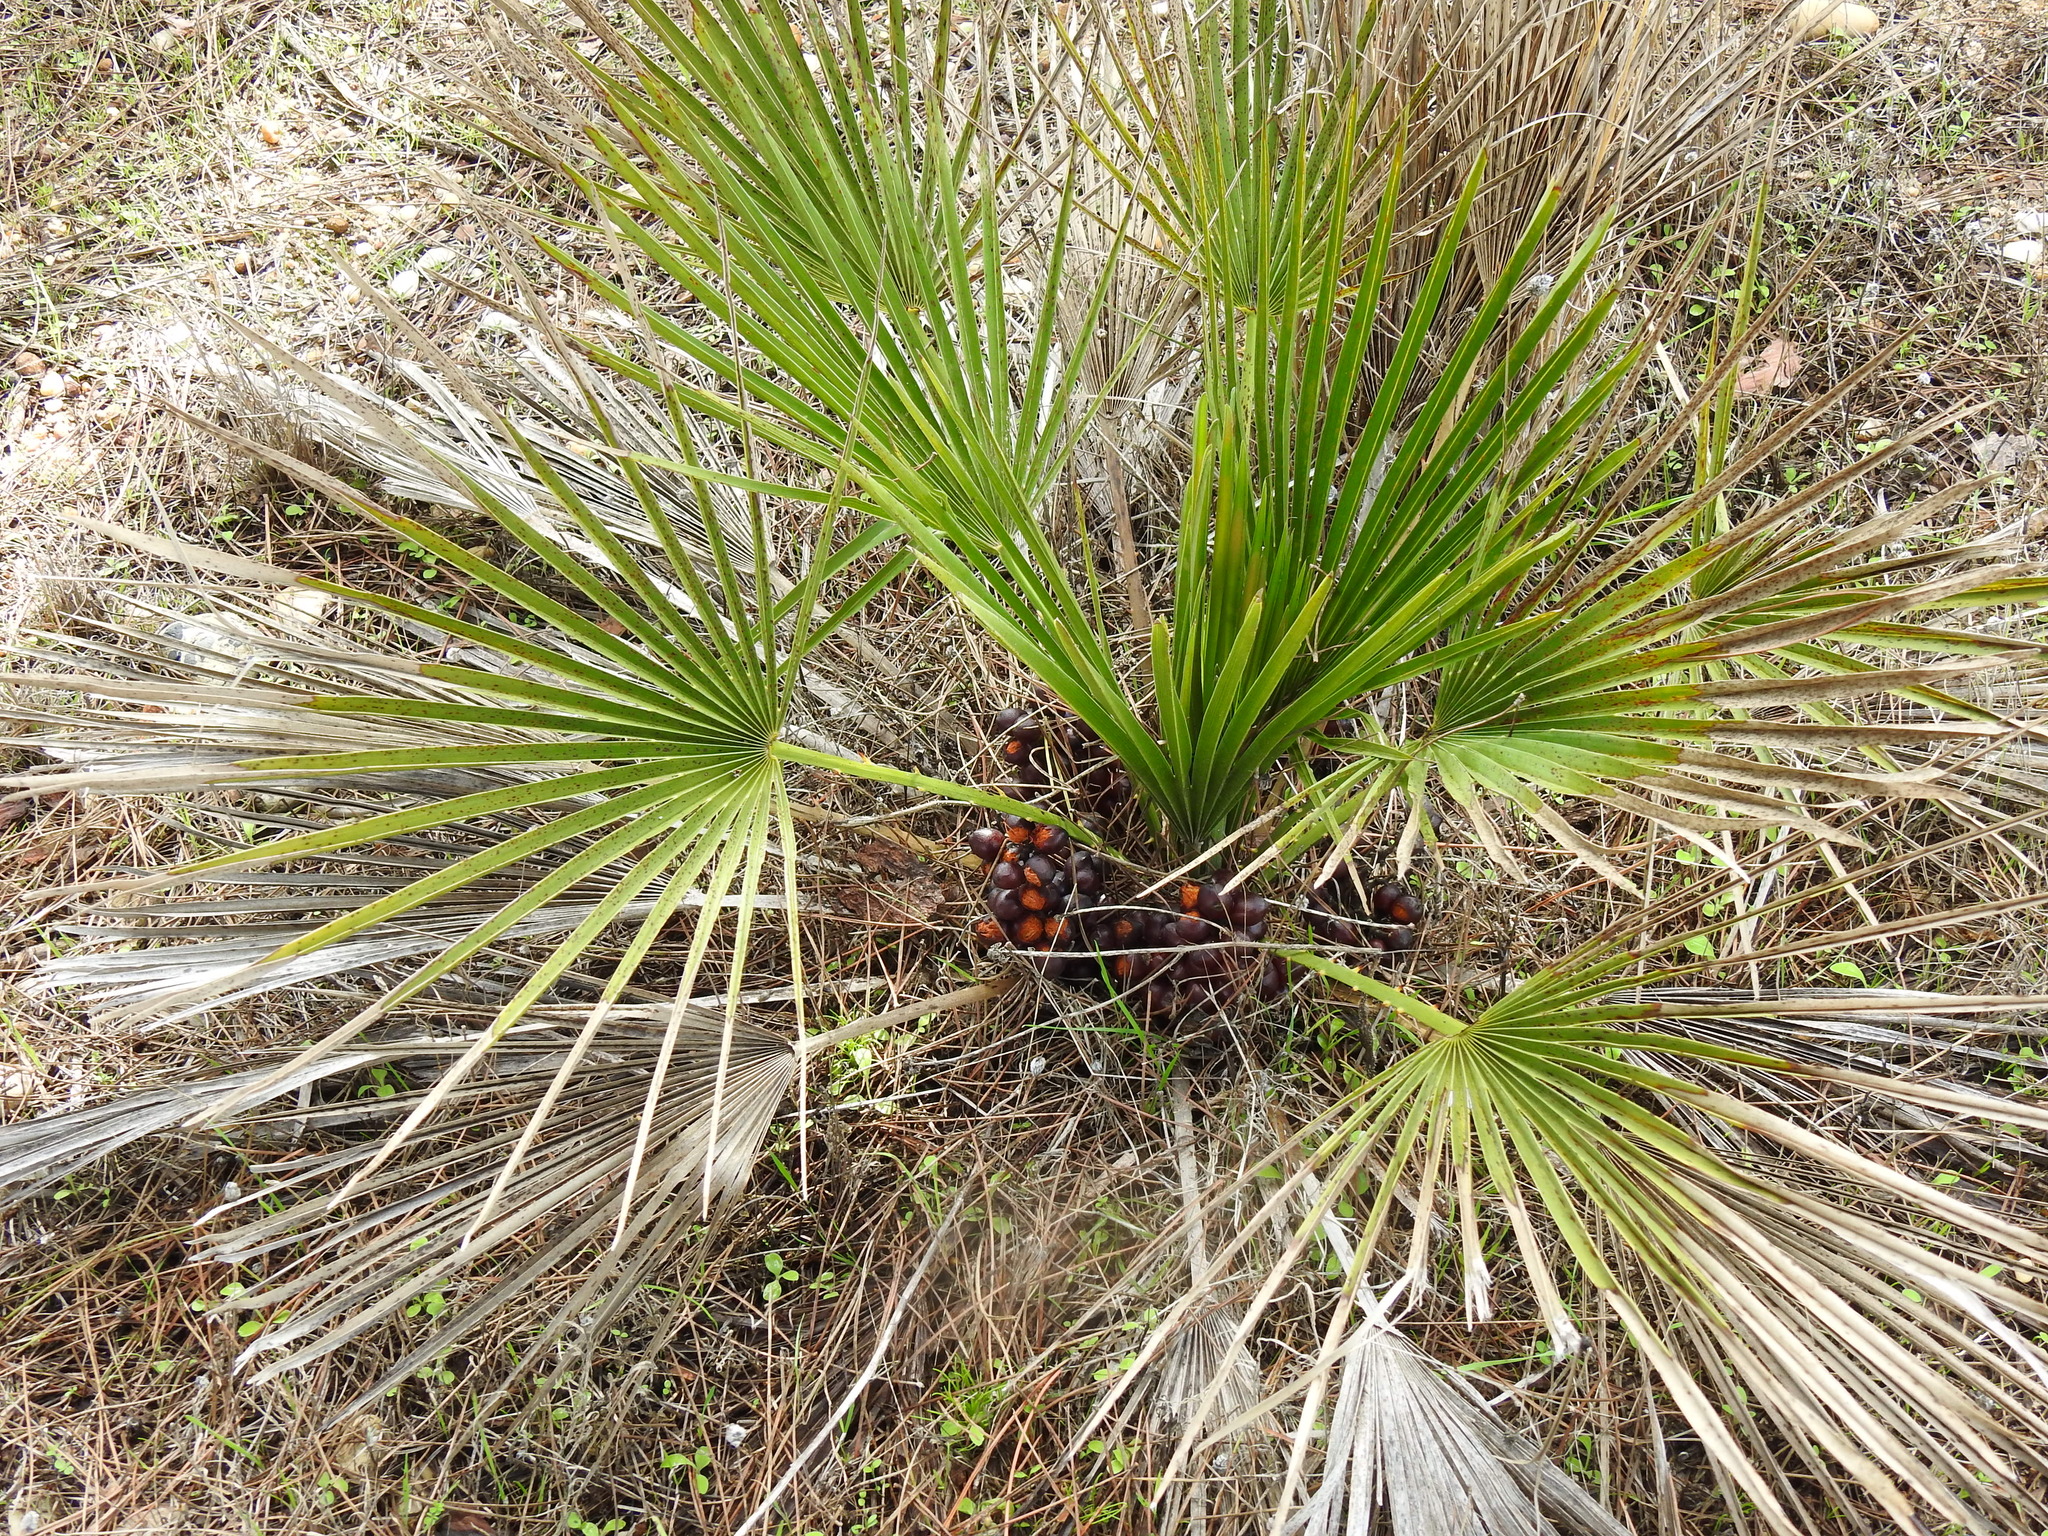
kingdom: Plantae
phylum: Tracheophyta
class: Liliopsida
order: Arecales
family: Arecaceae
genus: Chamaerops
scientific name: Chamaerops humilis
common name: Dwarf fan palm
